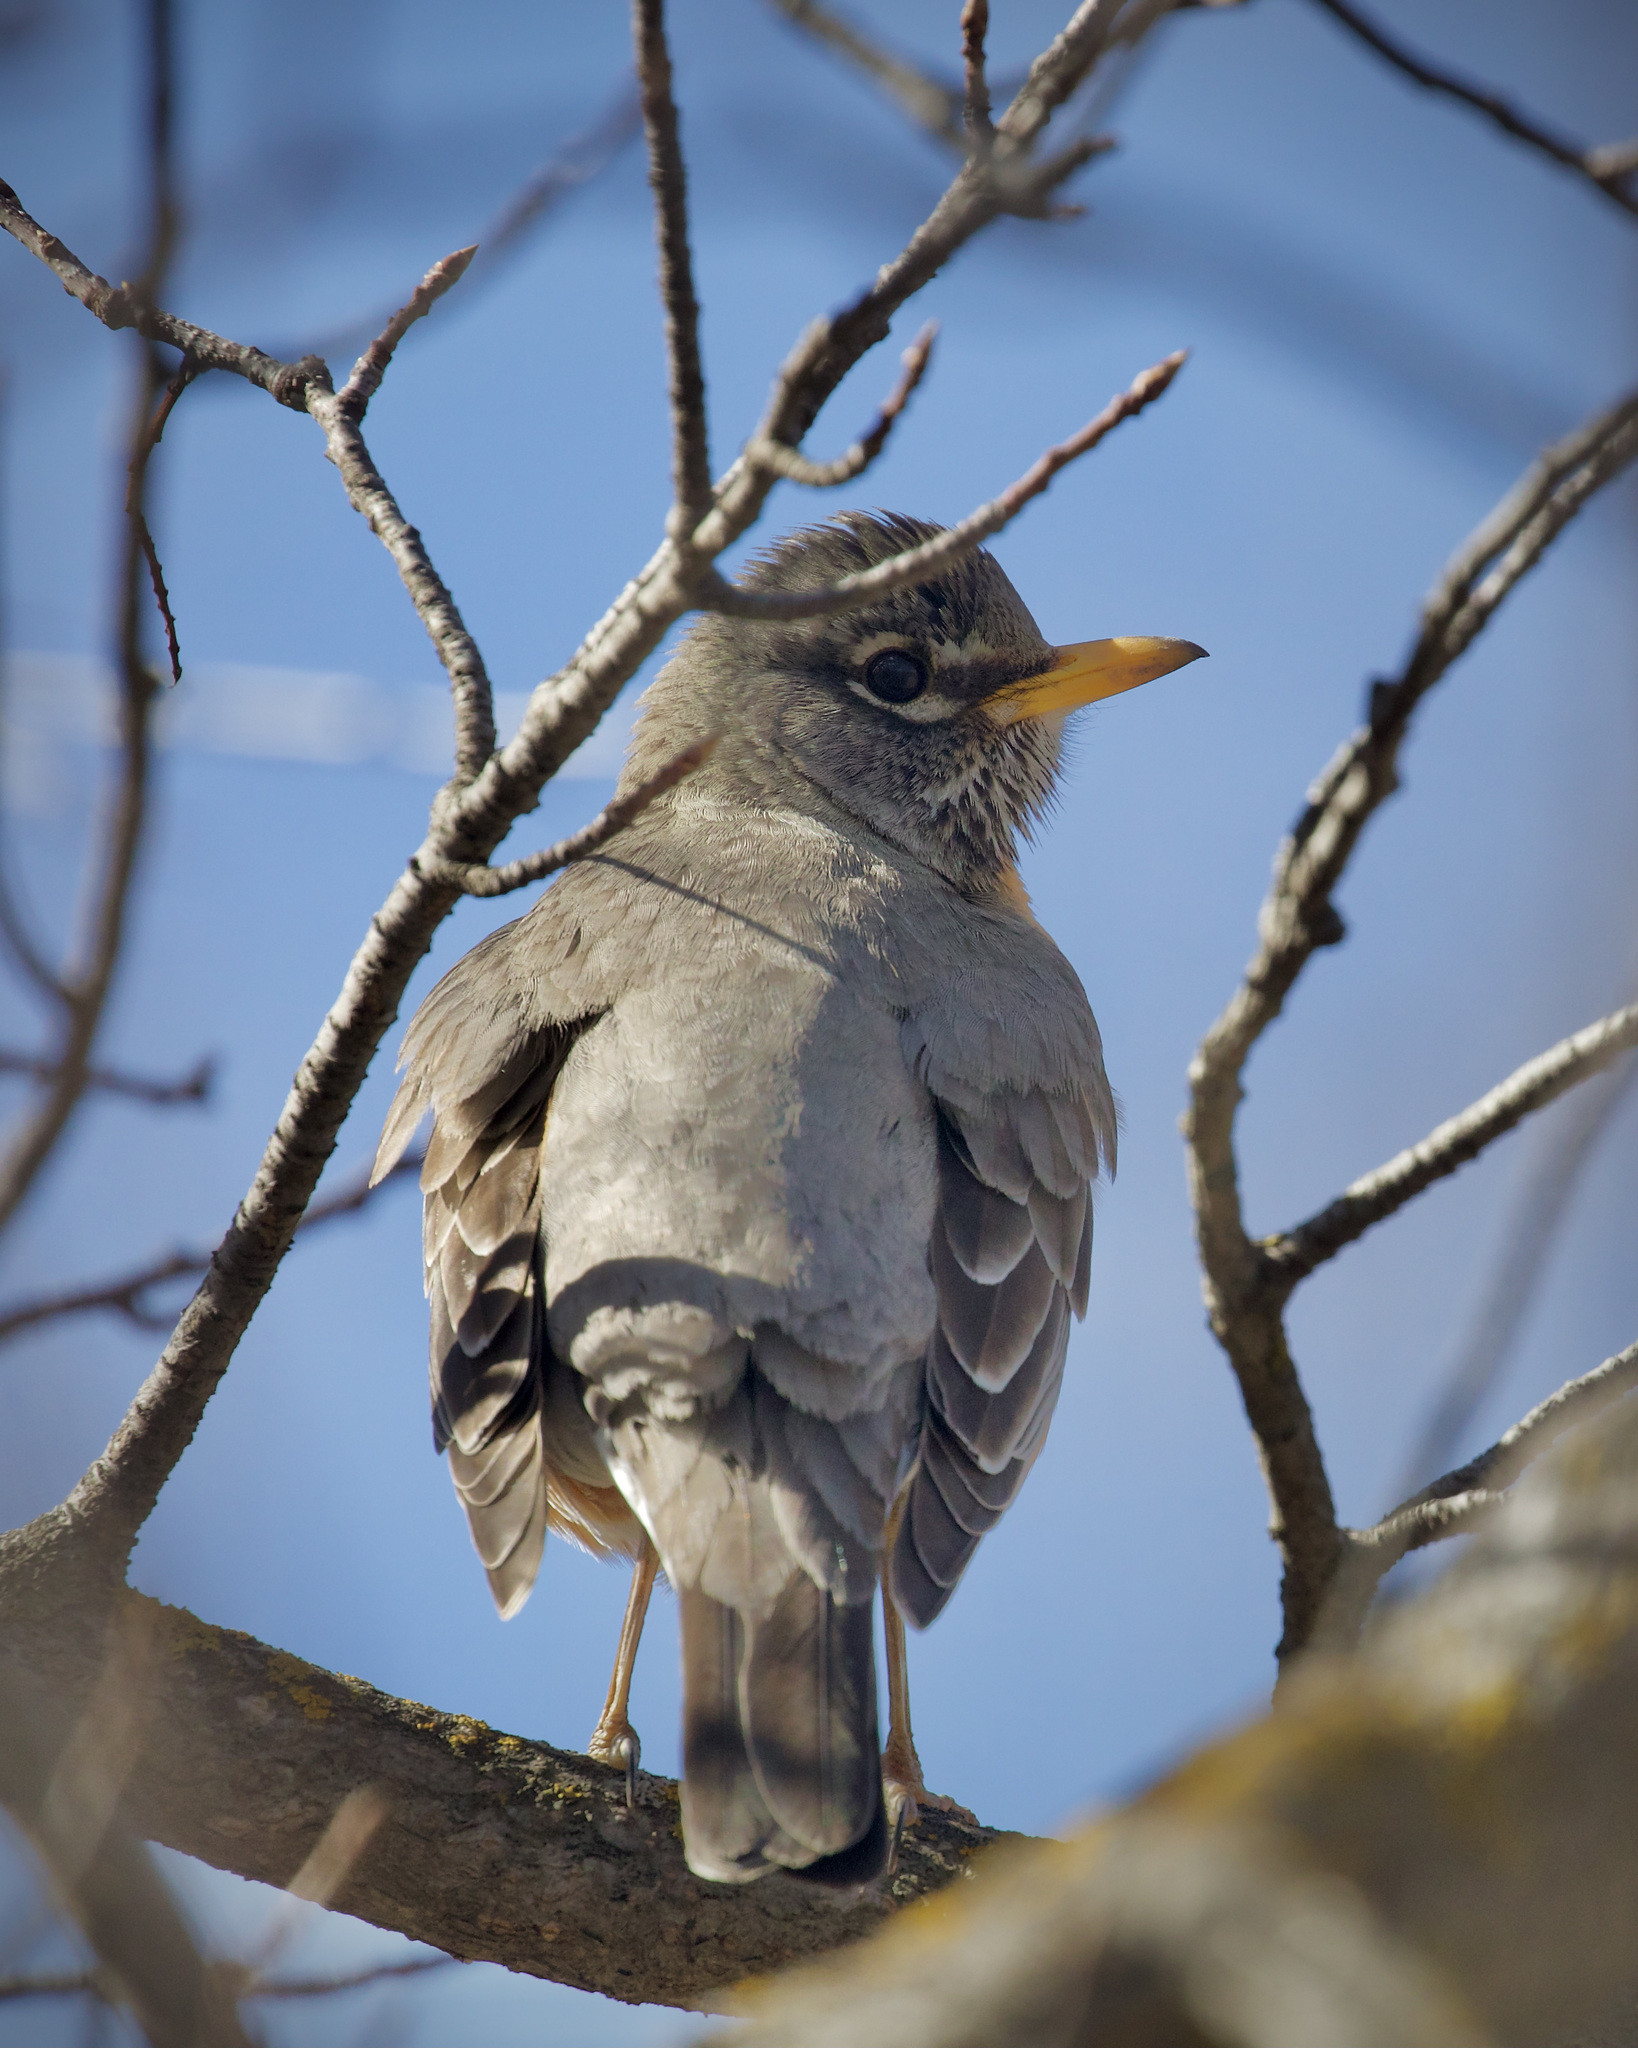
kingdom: Animalia
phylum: Chordata
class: Aves
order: Passeriformes
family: Turdidae
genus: Turdus
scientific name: Turdus migratorius
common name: American robin
